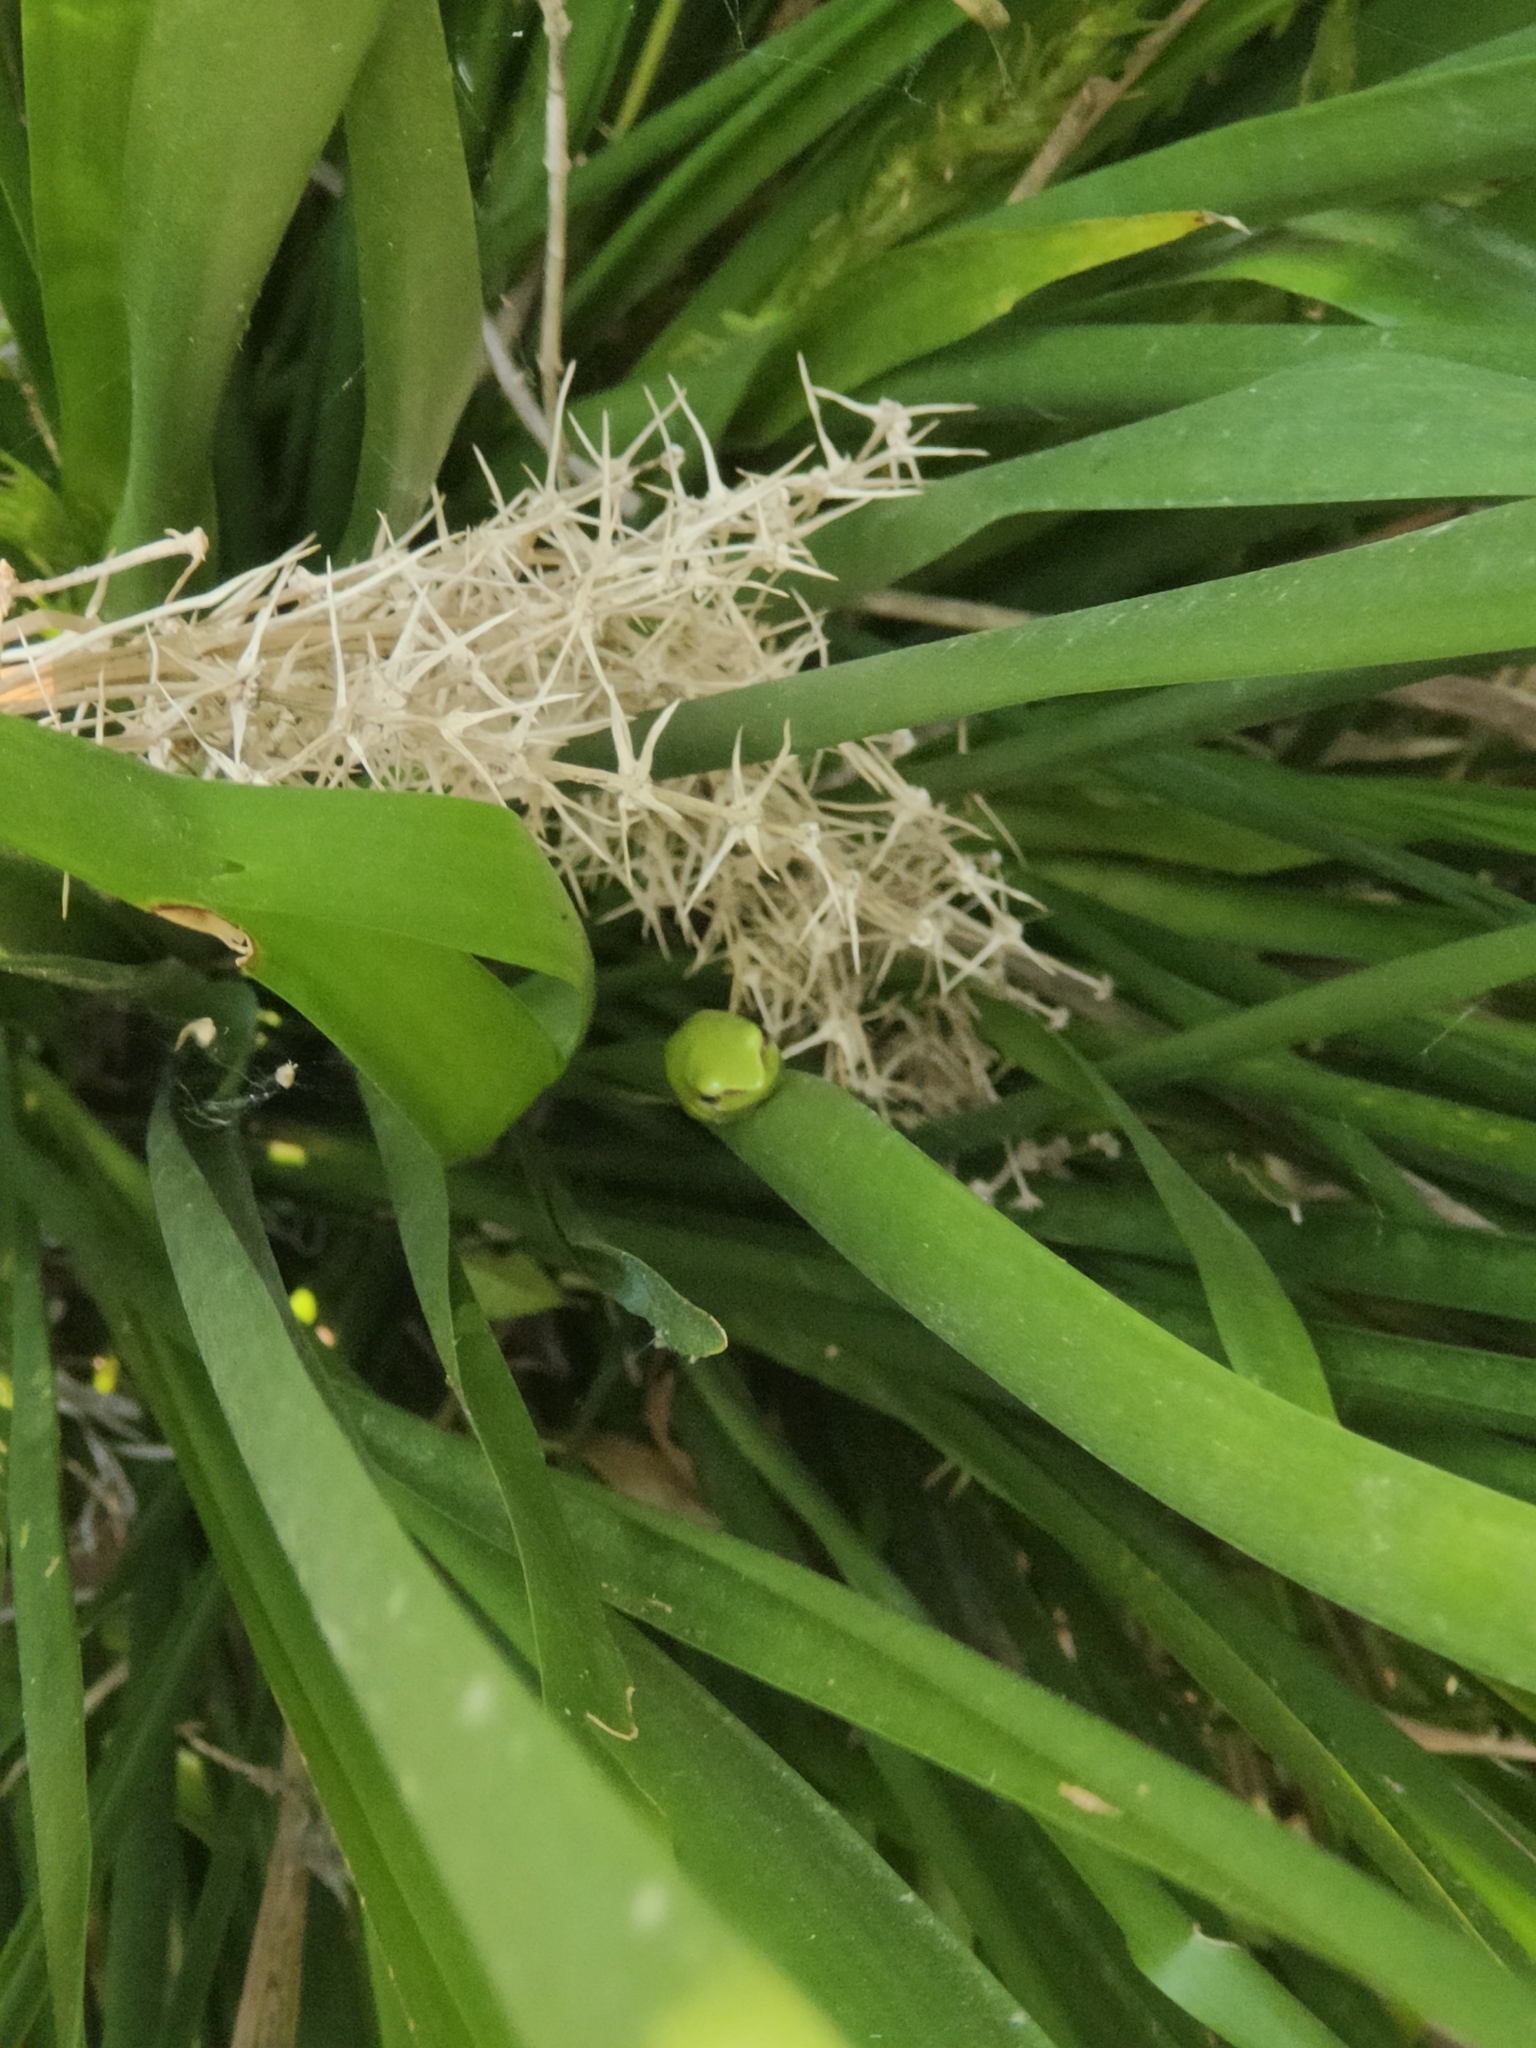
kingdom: Animalia
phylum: Chordata
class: Amphibia
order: Anura
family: Pelodryadidae
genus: Litoria
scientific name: Litoria fallax
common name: Eastern dwarf treefrog
